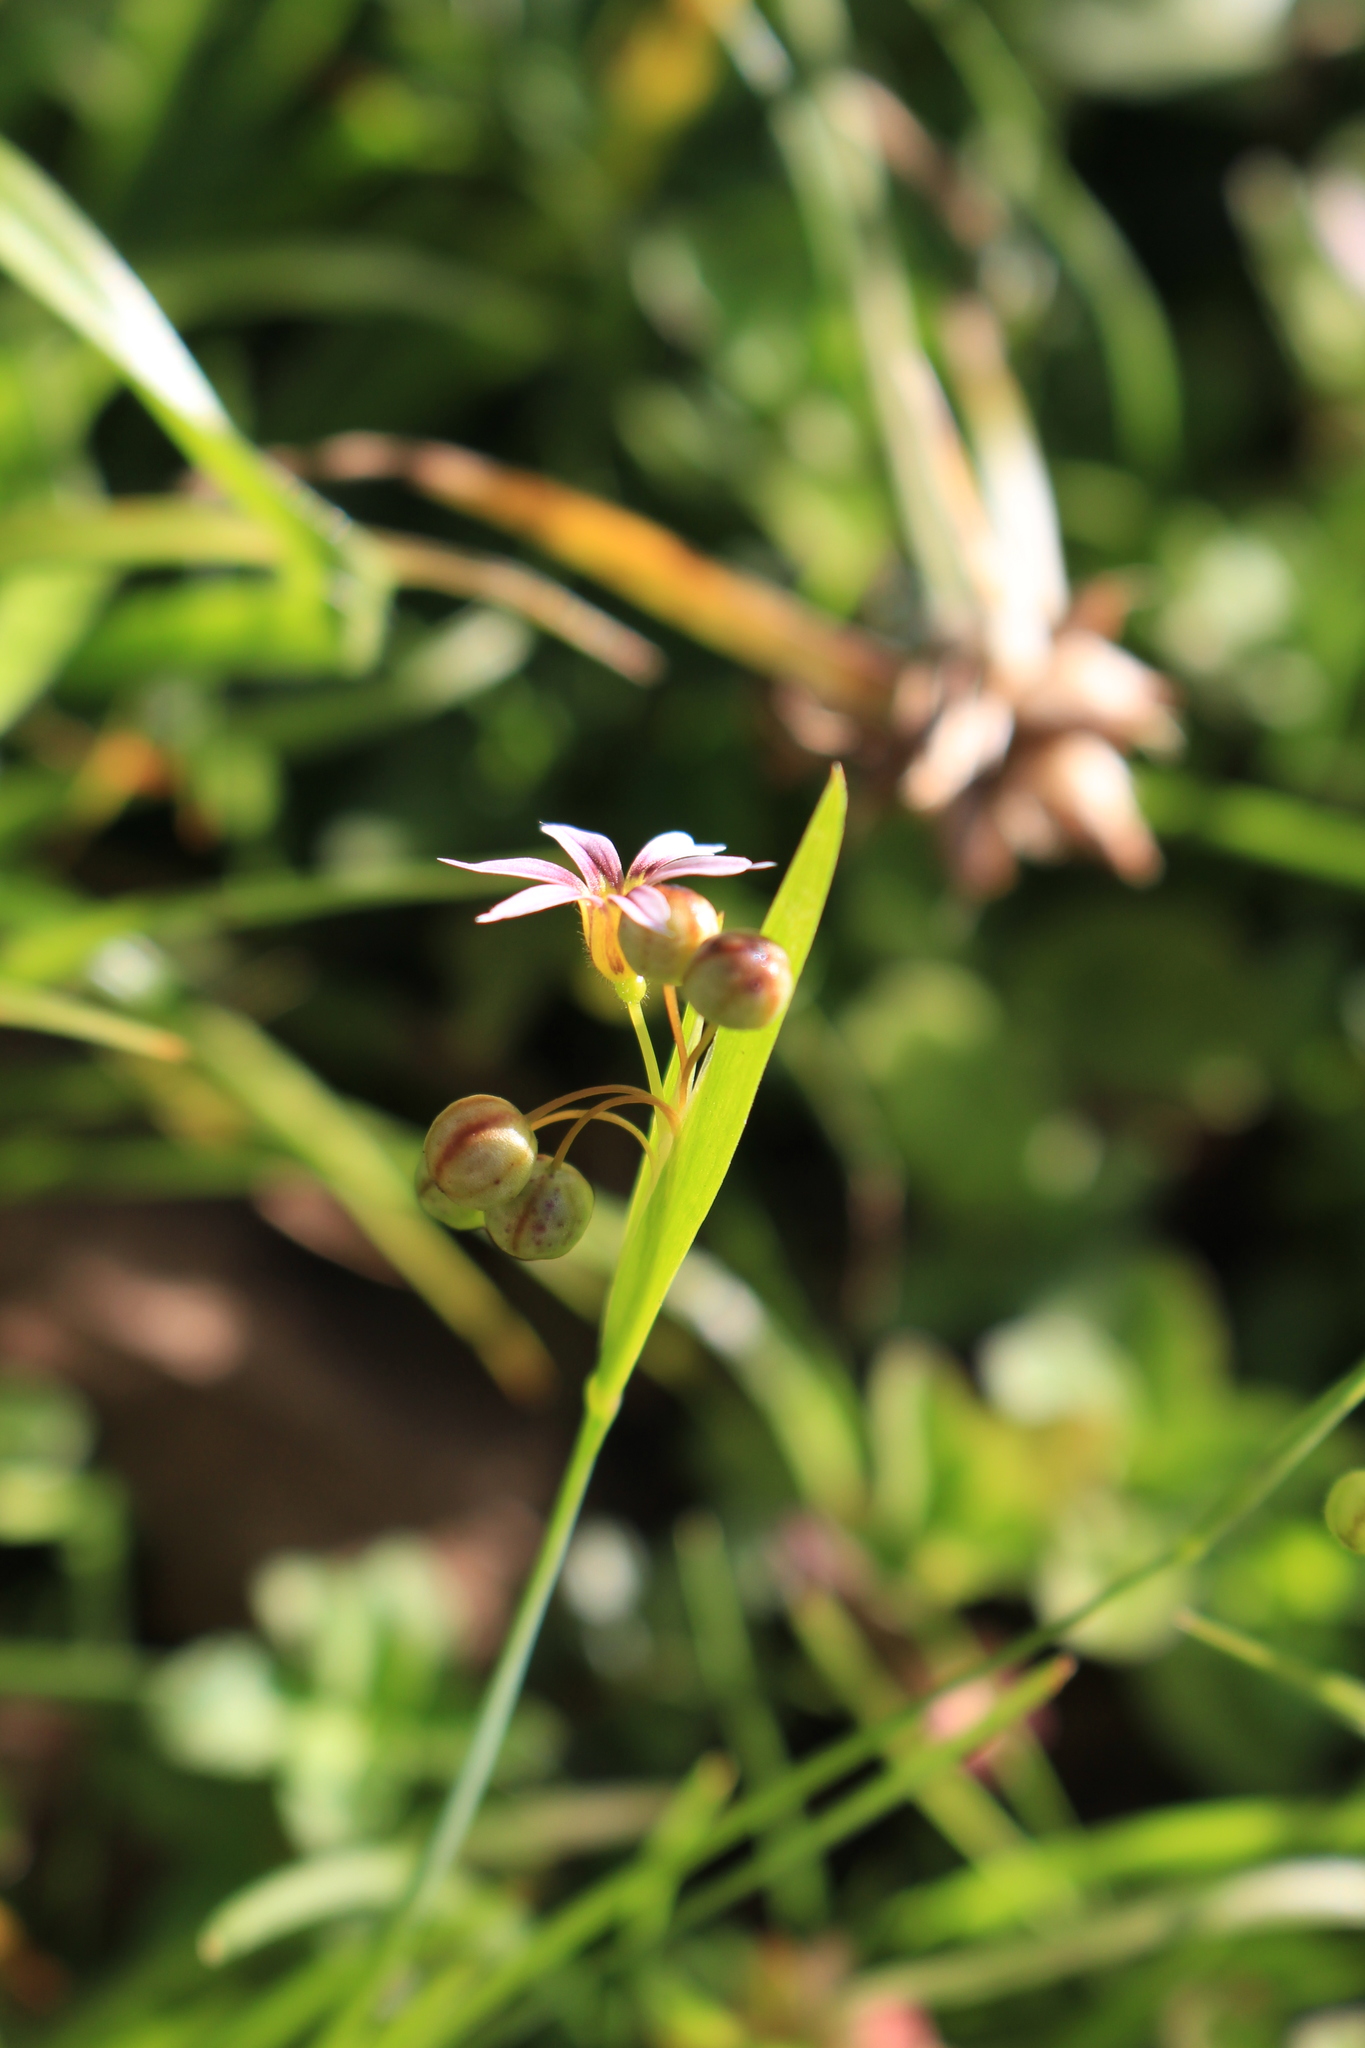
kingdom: Plantae
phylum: Tracheophyta
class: Liliopsida
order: Asparagales
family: Iridaceae
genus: Sisyrinchium
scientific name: Sisyrinchium micranthum
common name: Bermuda pigroot
